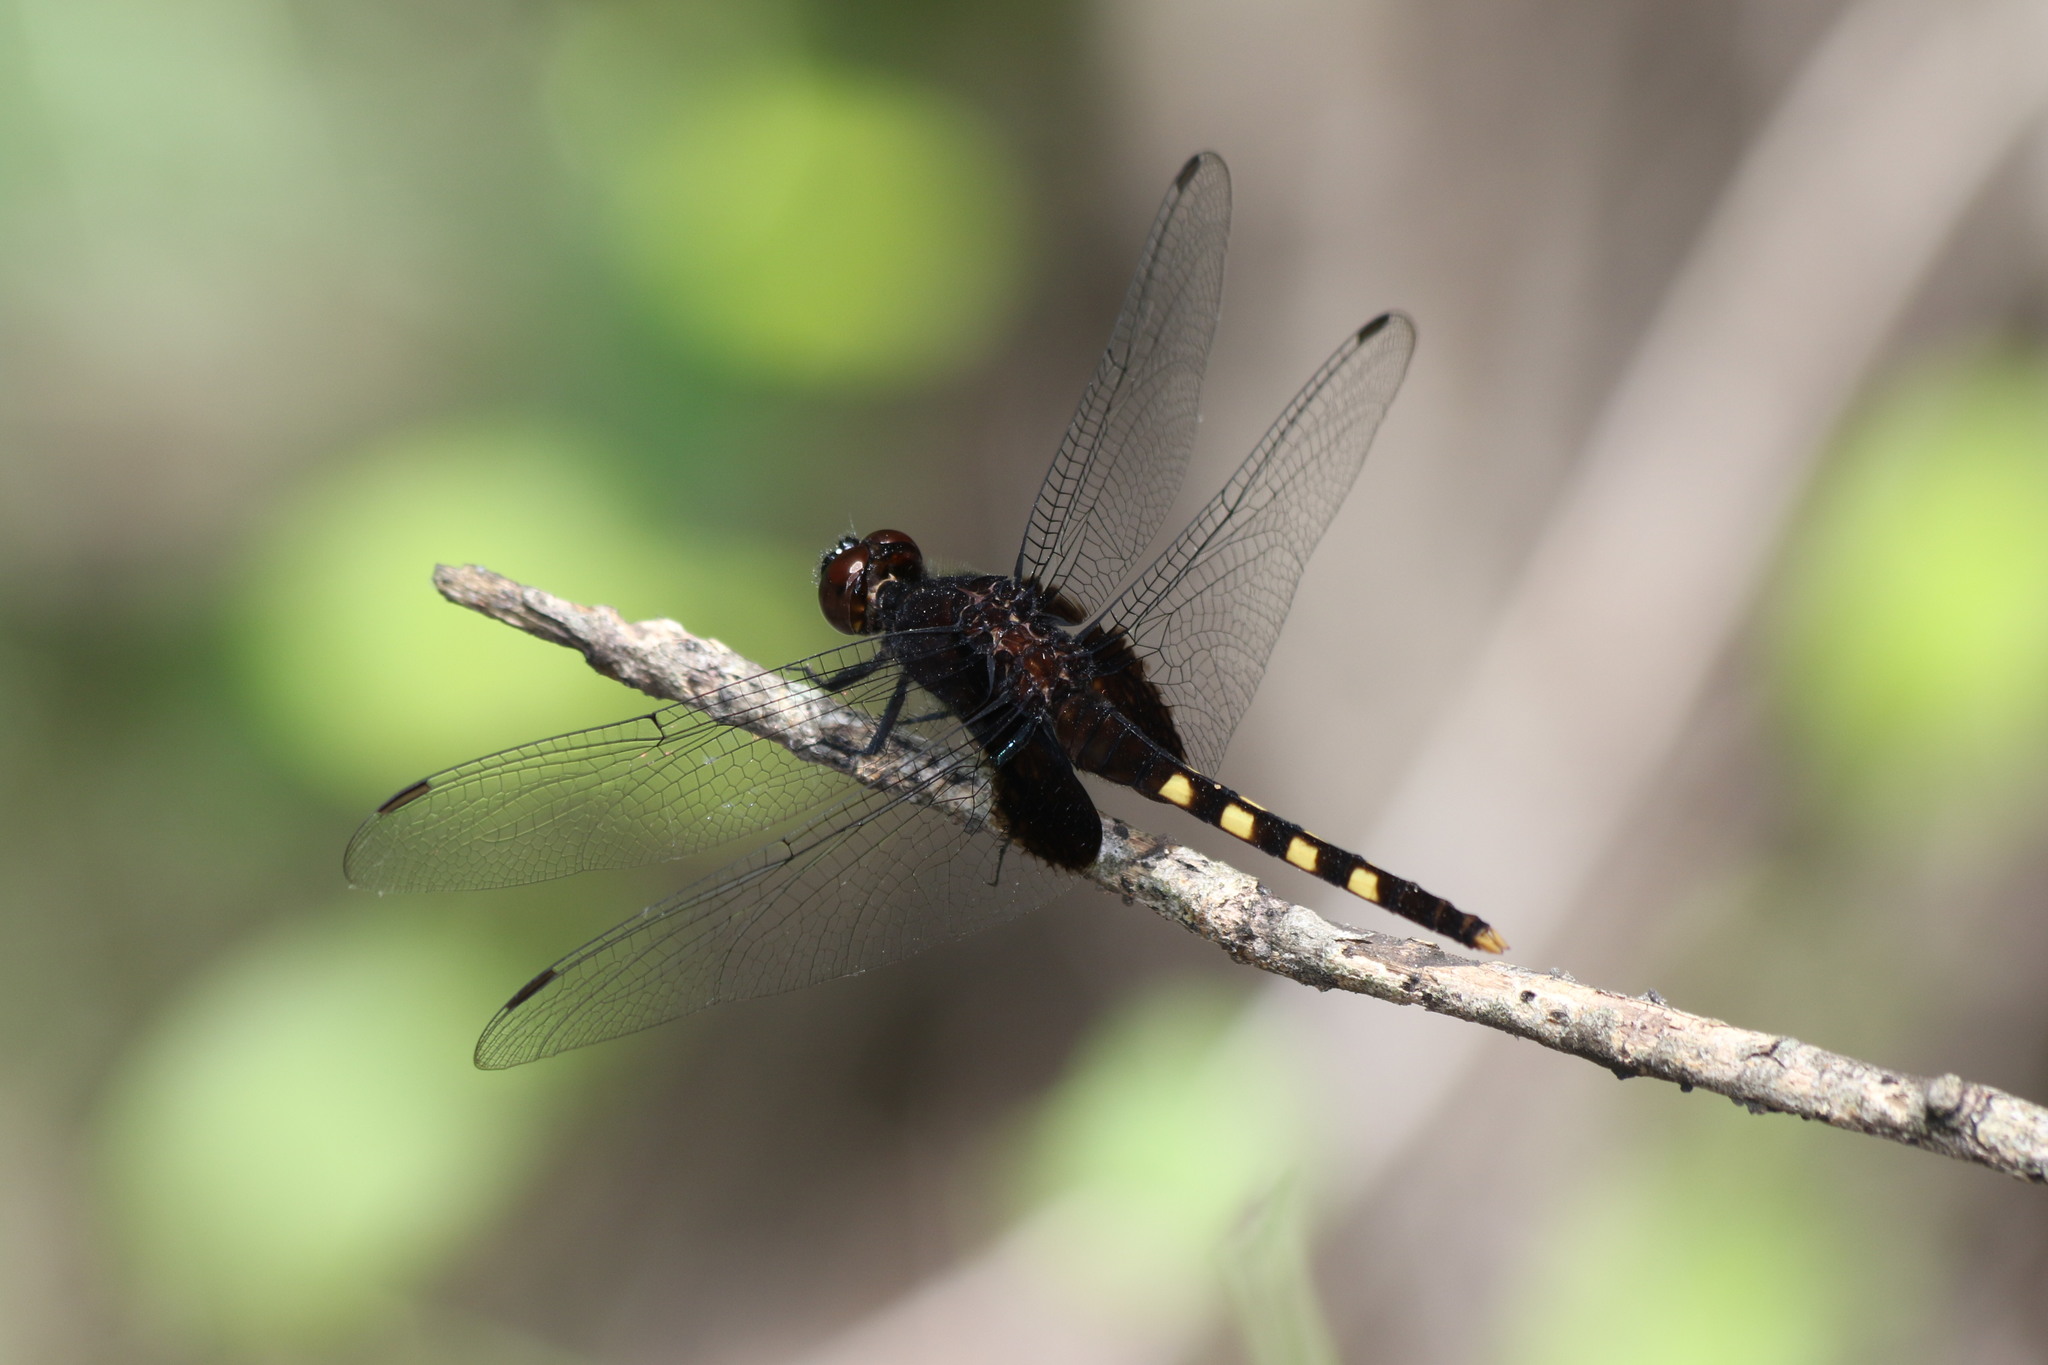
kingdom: Animalia
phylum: Arthropoda
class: Insecta
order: Odonata
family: Libellulidae
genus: Erythemis
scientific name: Erythemis attala
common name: Black pondhawk
